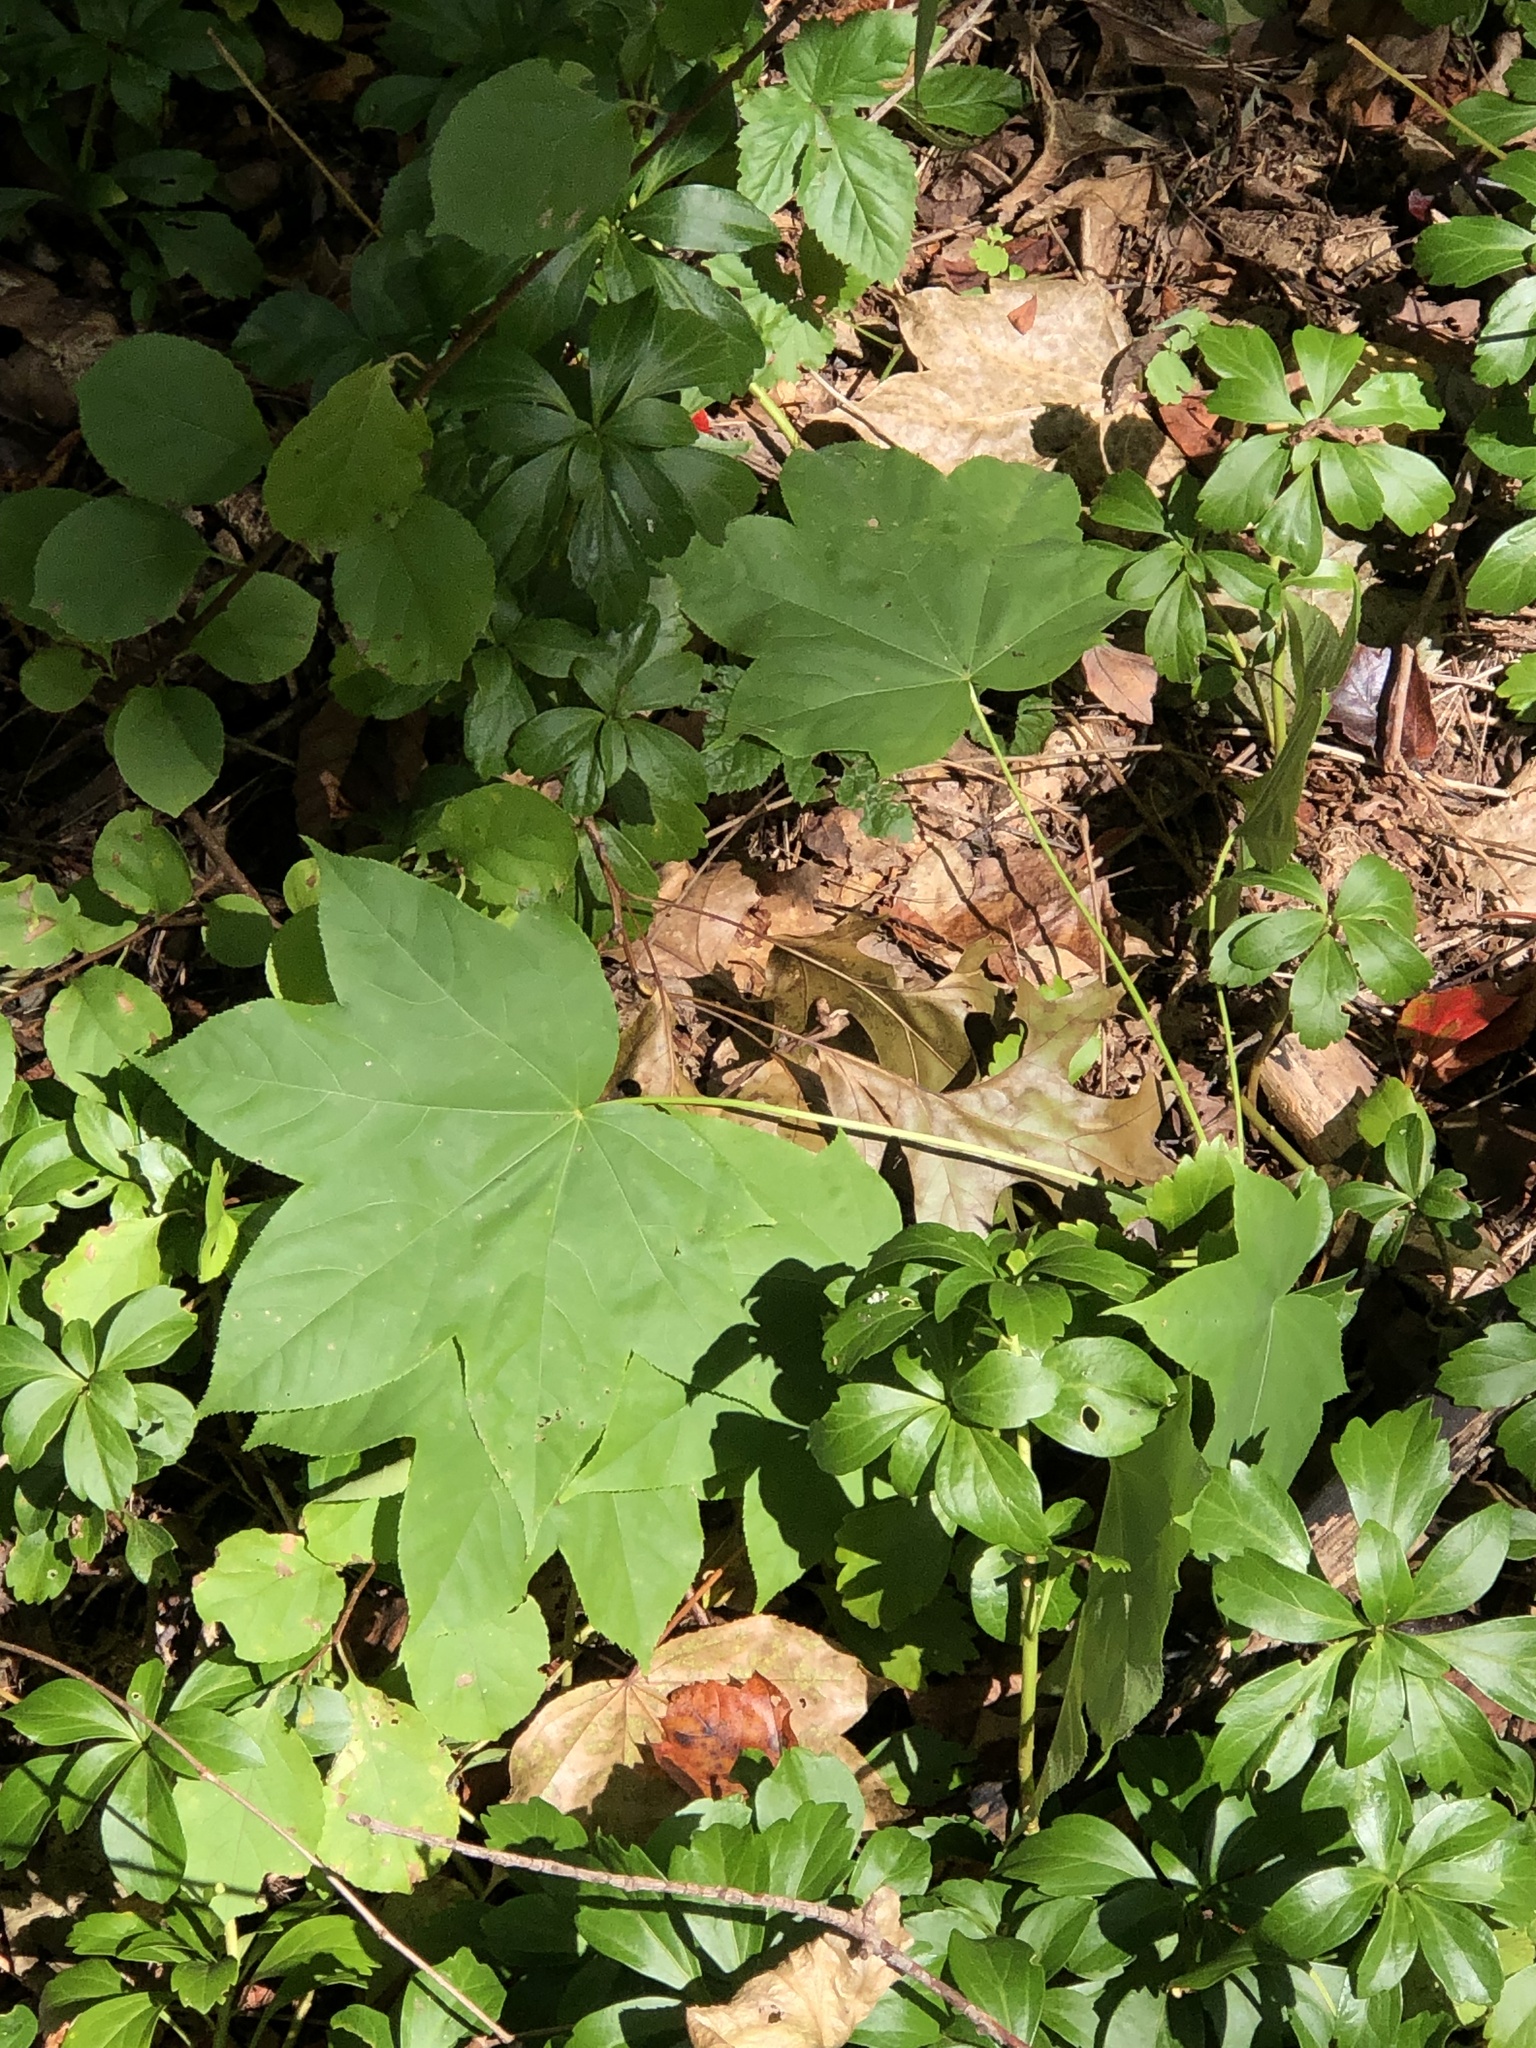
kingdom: Plantae
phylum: Tracheophyta
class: Magnoliopsida
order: Apiales
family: Araliaceae
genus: Kalopanax
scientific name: Kalopanax septemlobus
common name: Castor aralia
